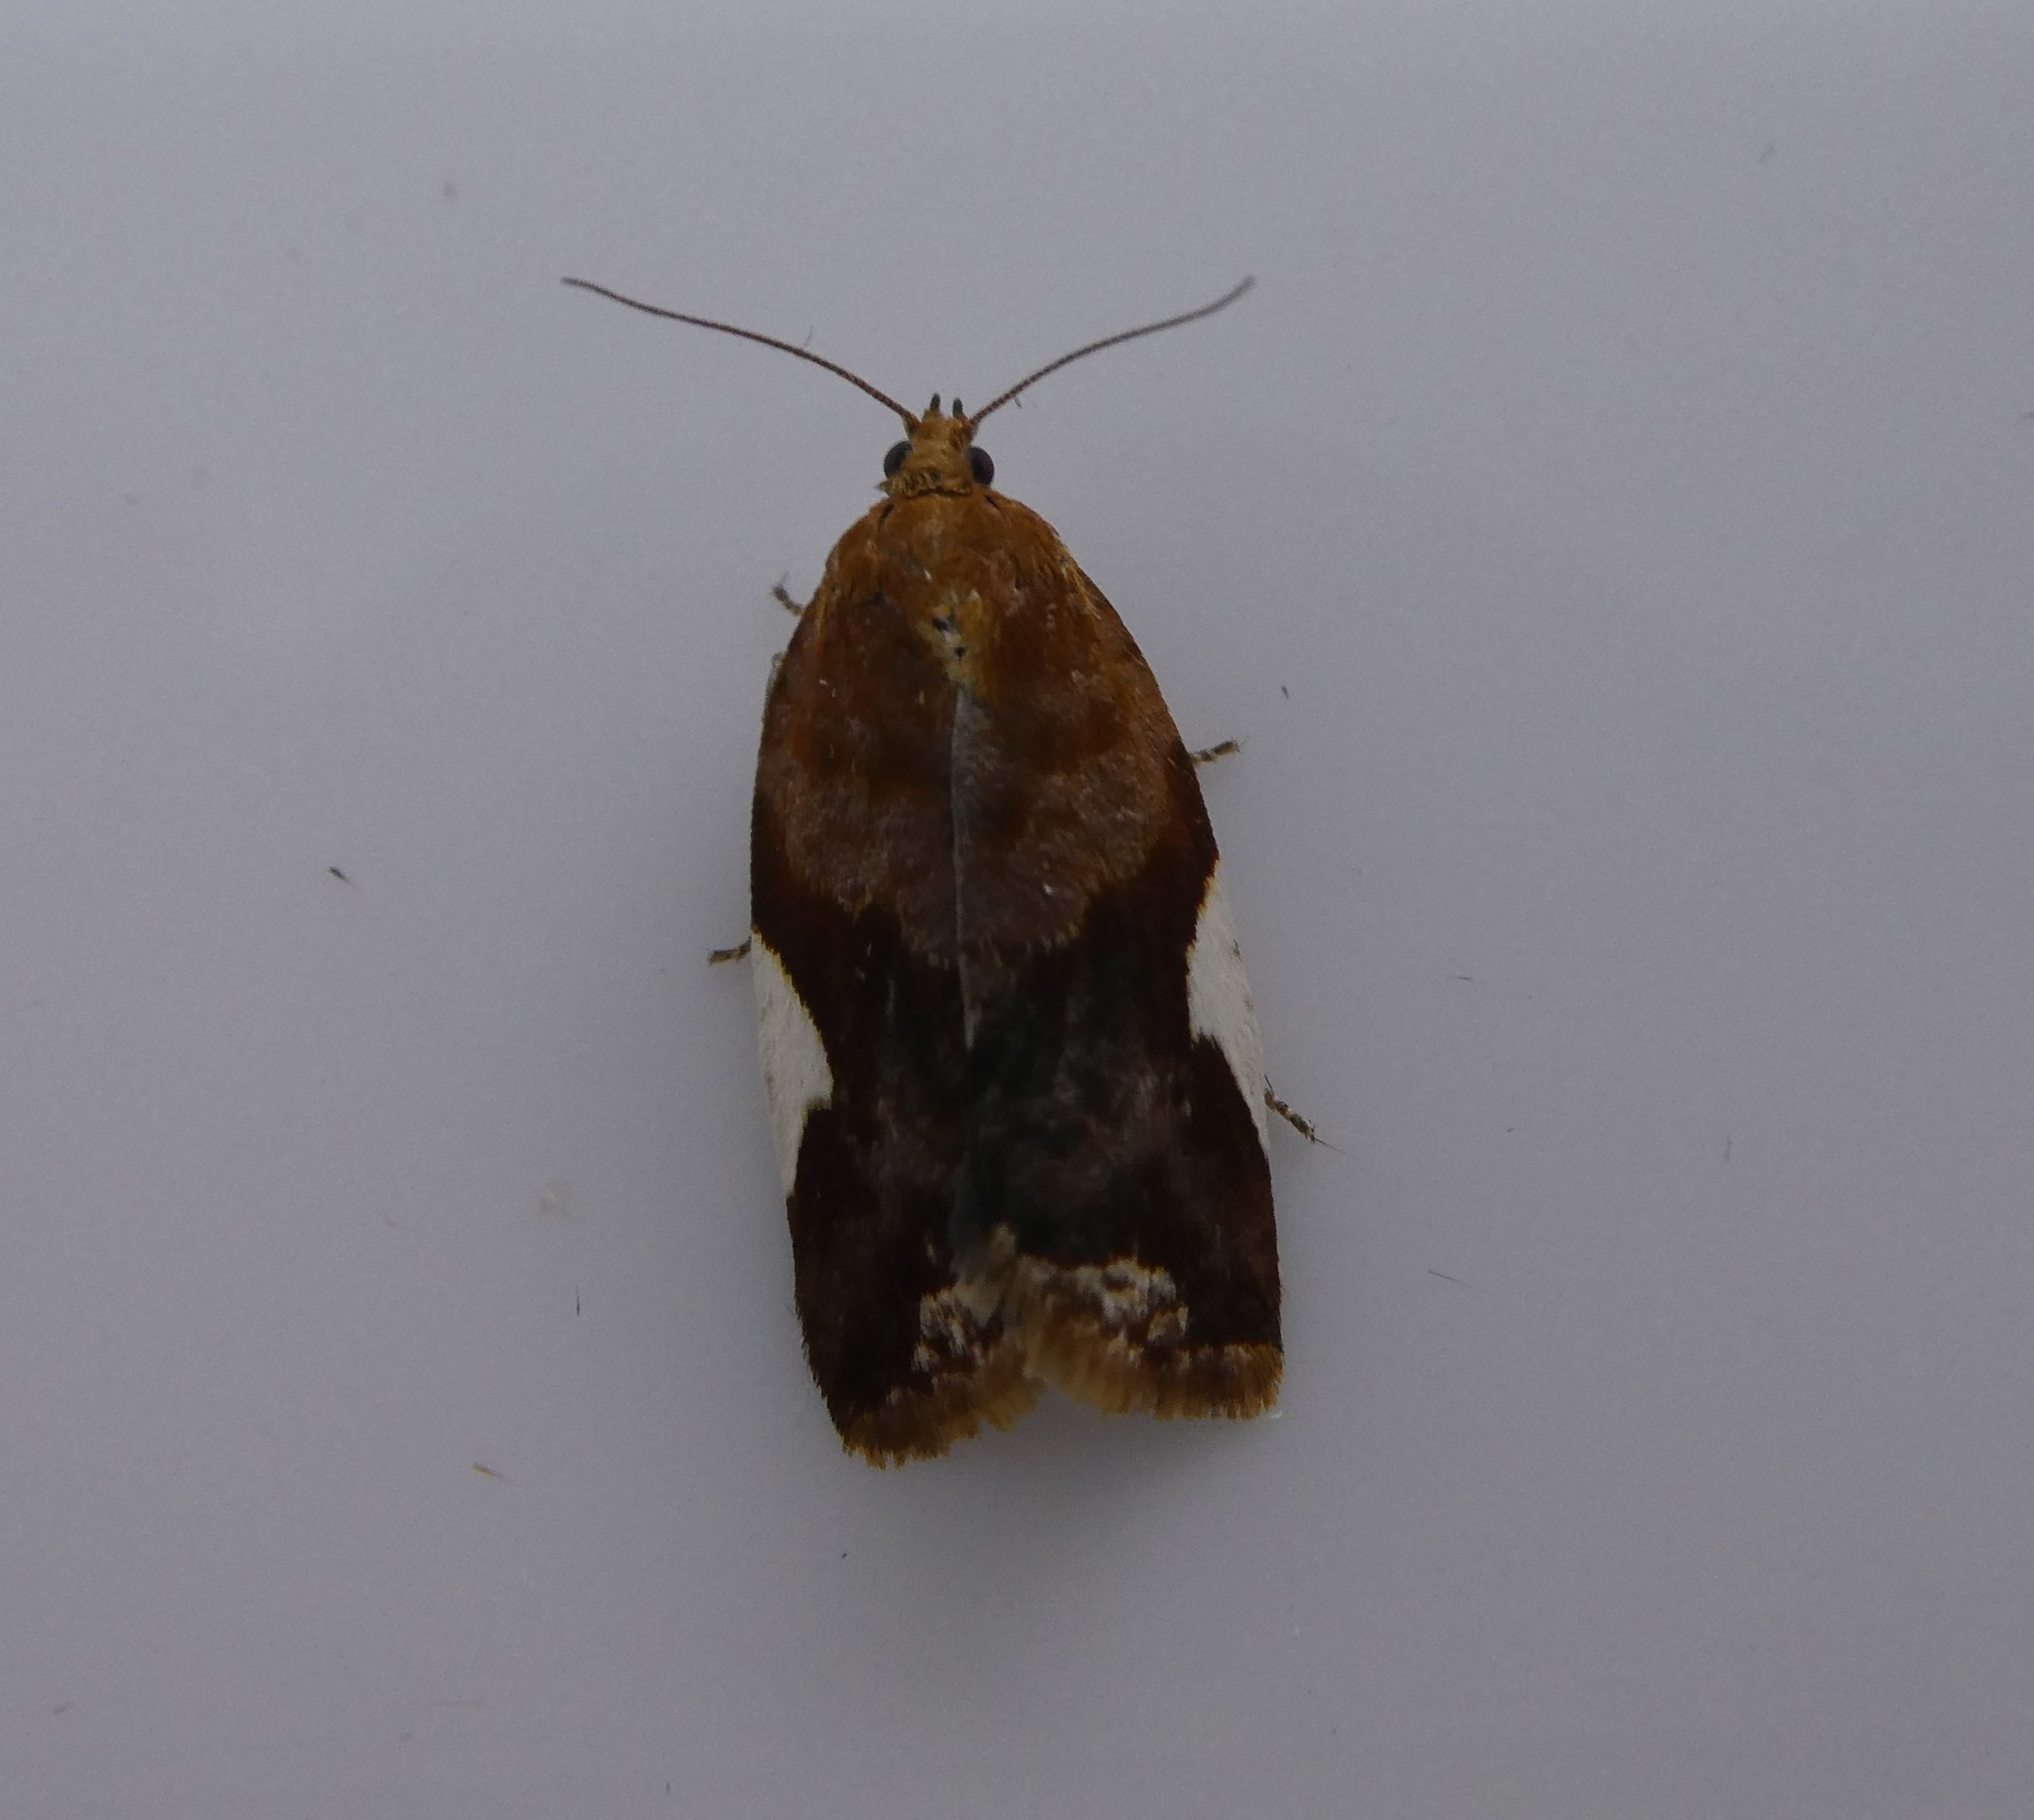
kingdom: Animalia
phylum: Arthropoda
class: Insecta
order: Lepidoptera
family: Tortricidae
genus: Clepsis
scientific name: Clepsis persicana
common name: White triangle tortrix
